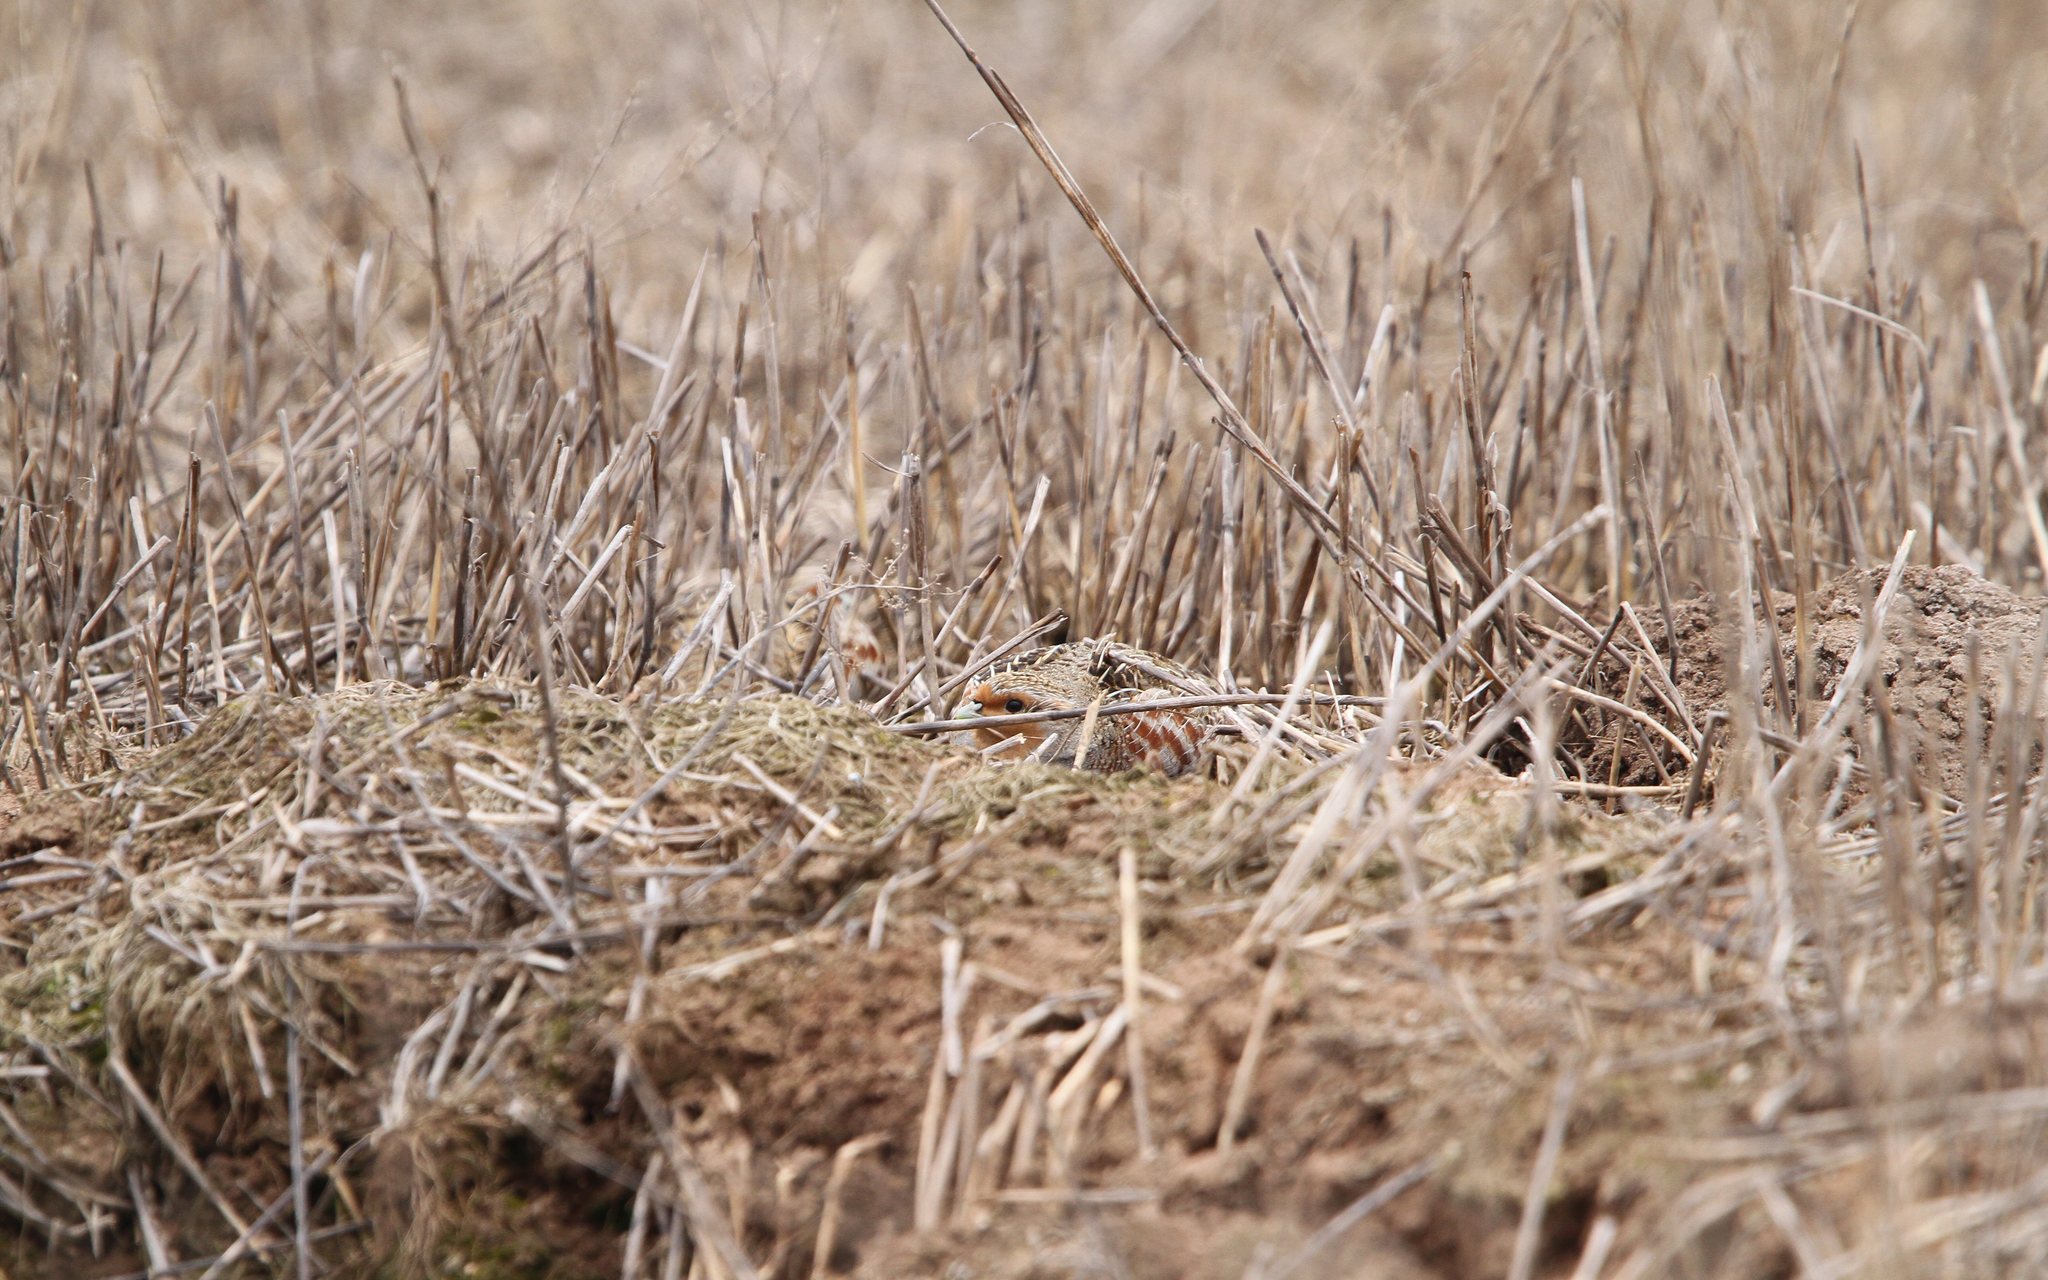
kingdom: Animalia
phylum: Chordata
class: Aves
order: Galliformes
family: Phasianidae
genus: Perdix
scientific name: Perdix perdix
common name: Grey partridge
